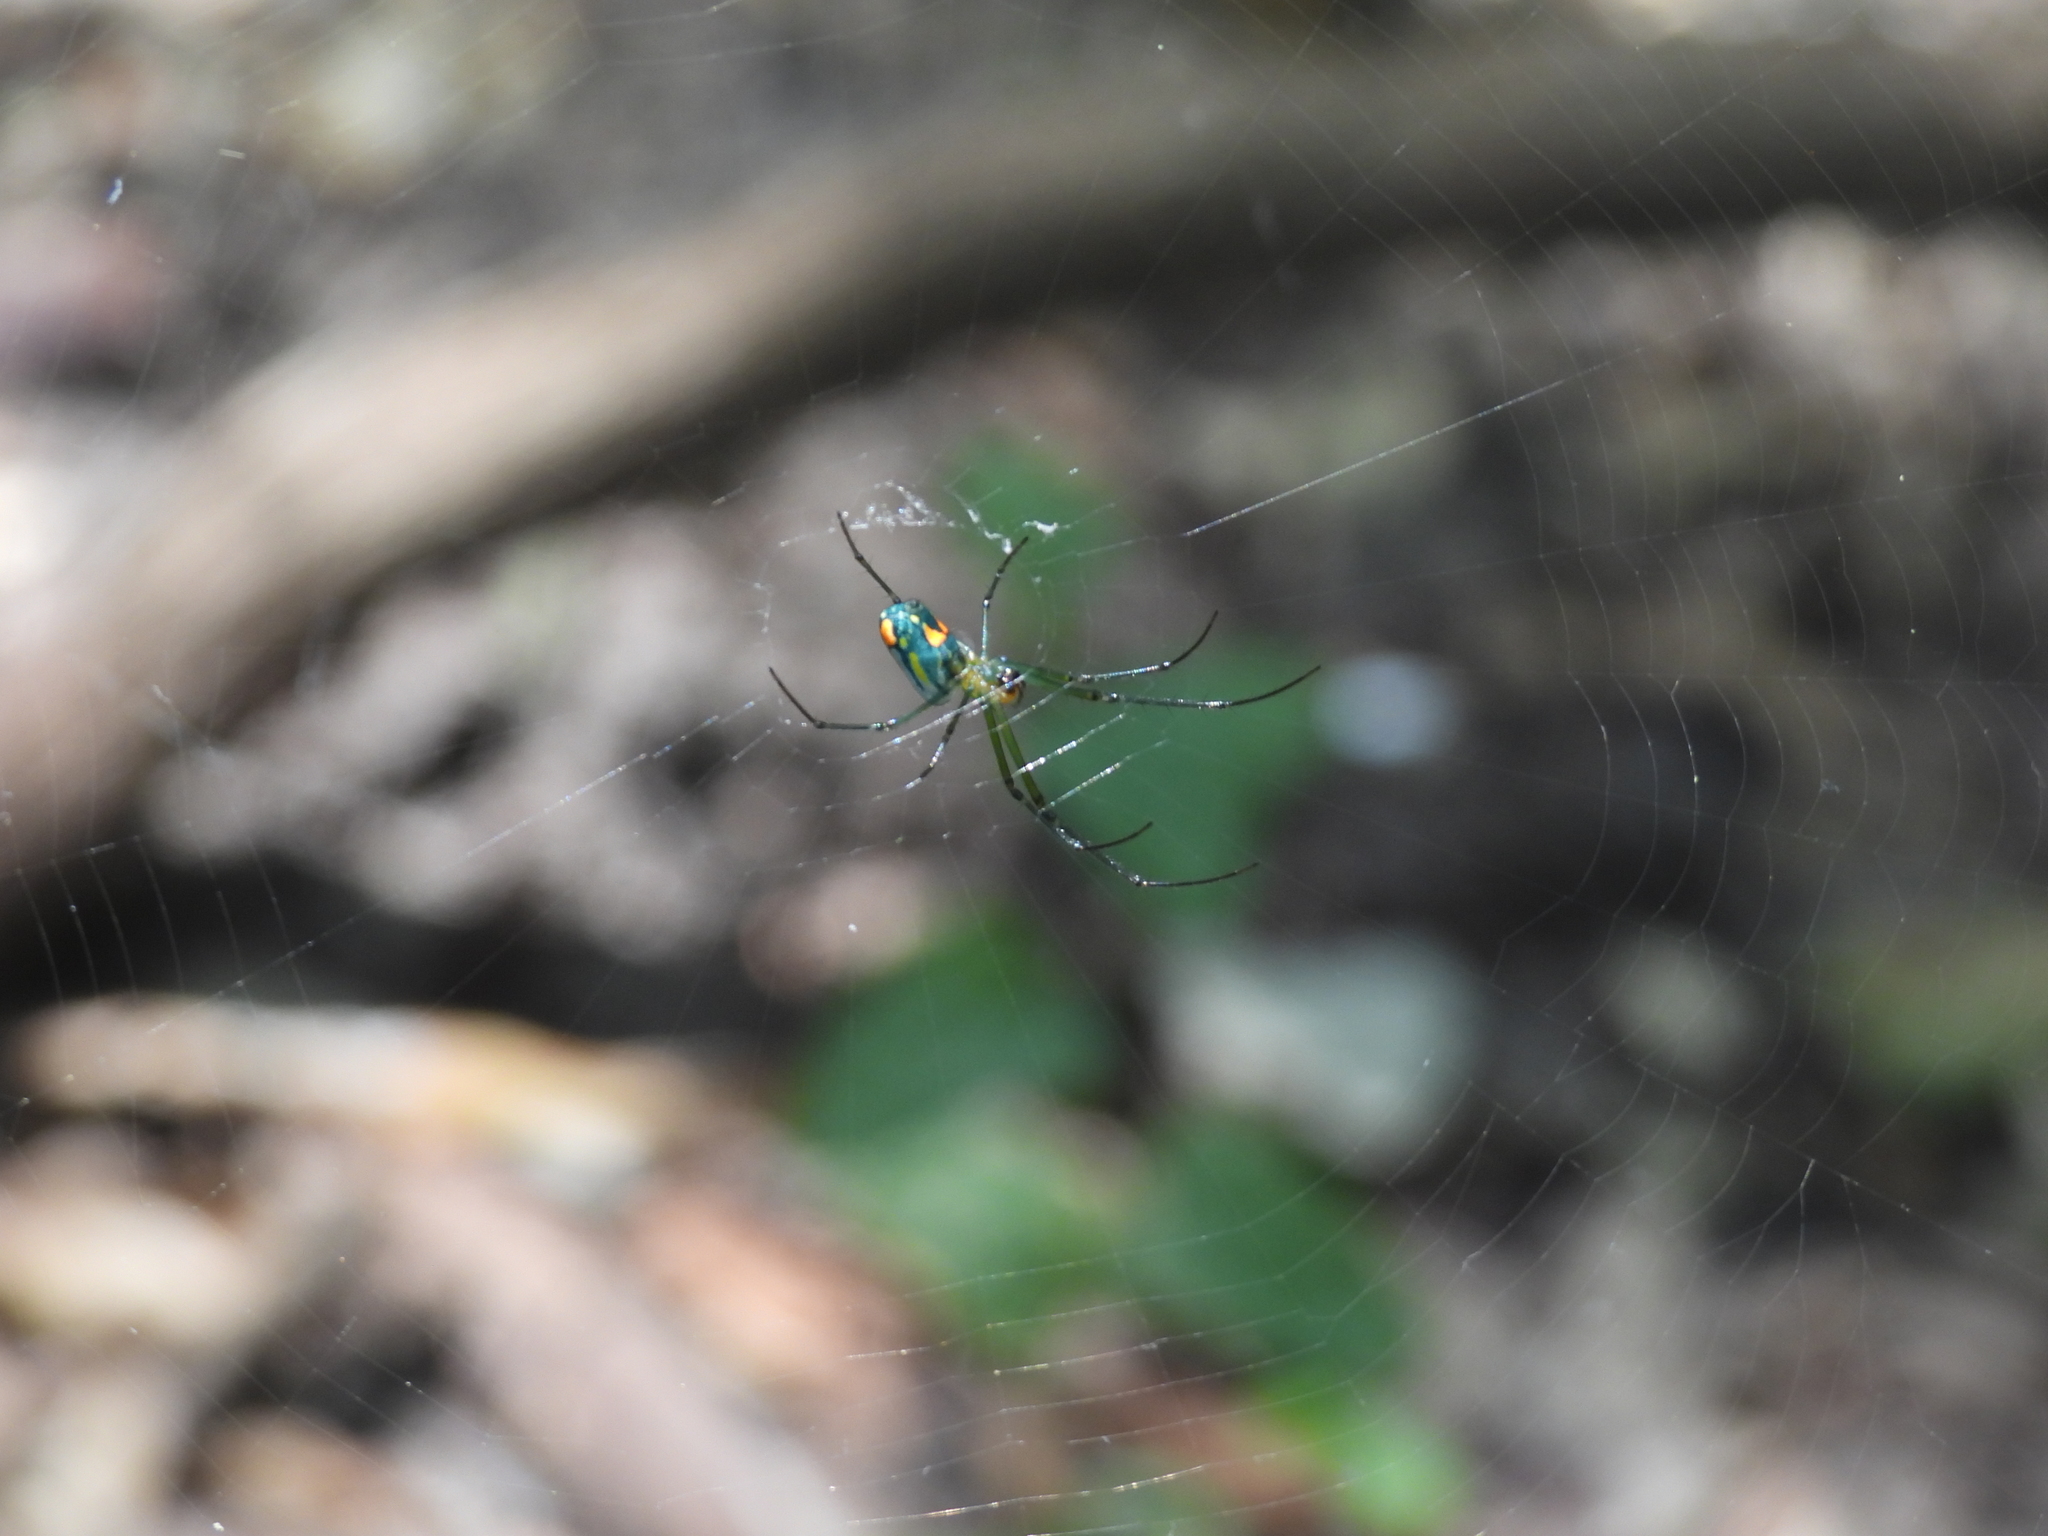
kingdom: Animalia
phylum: Arthropoda
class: Arachnida
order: Araneae
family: Tetragnathidae
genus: Leucauge
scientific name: Leucauge argyrobapta
